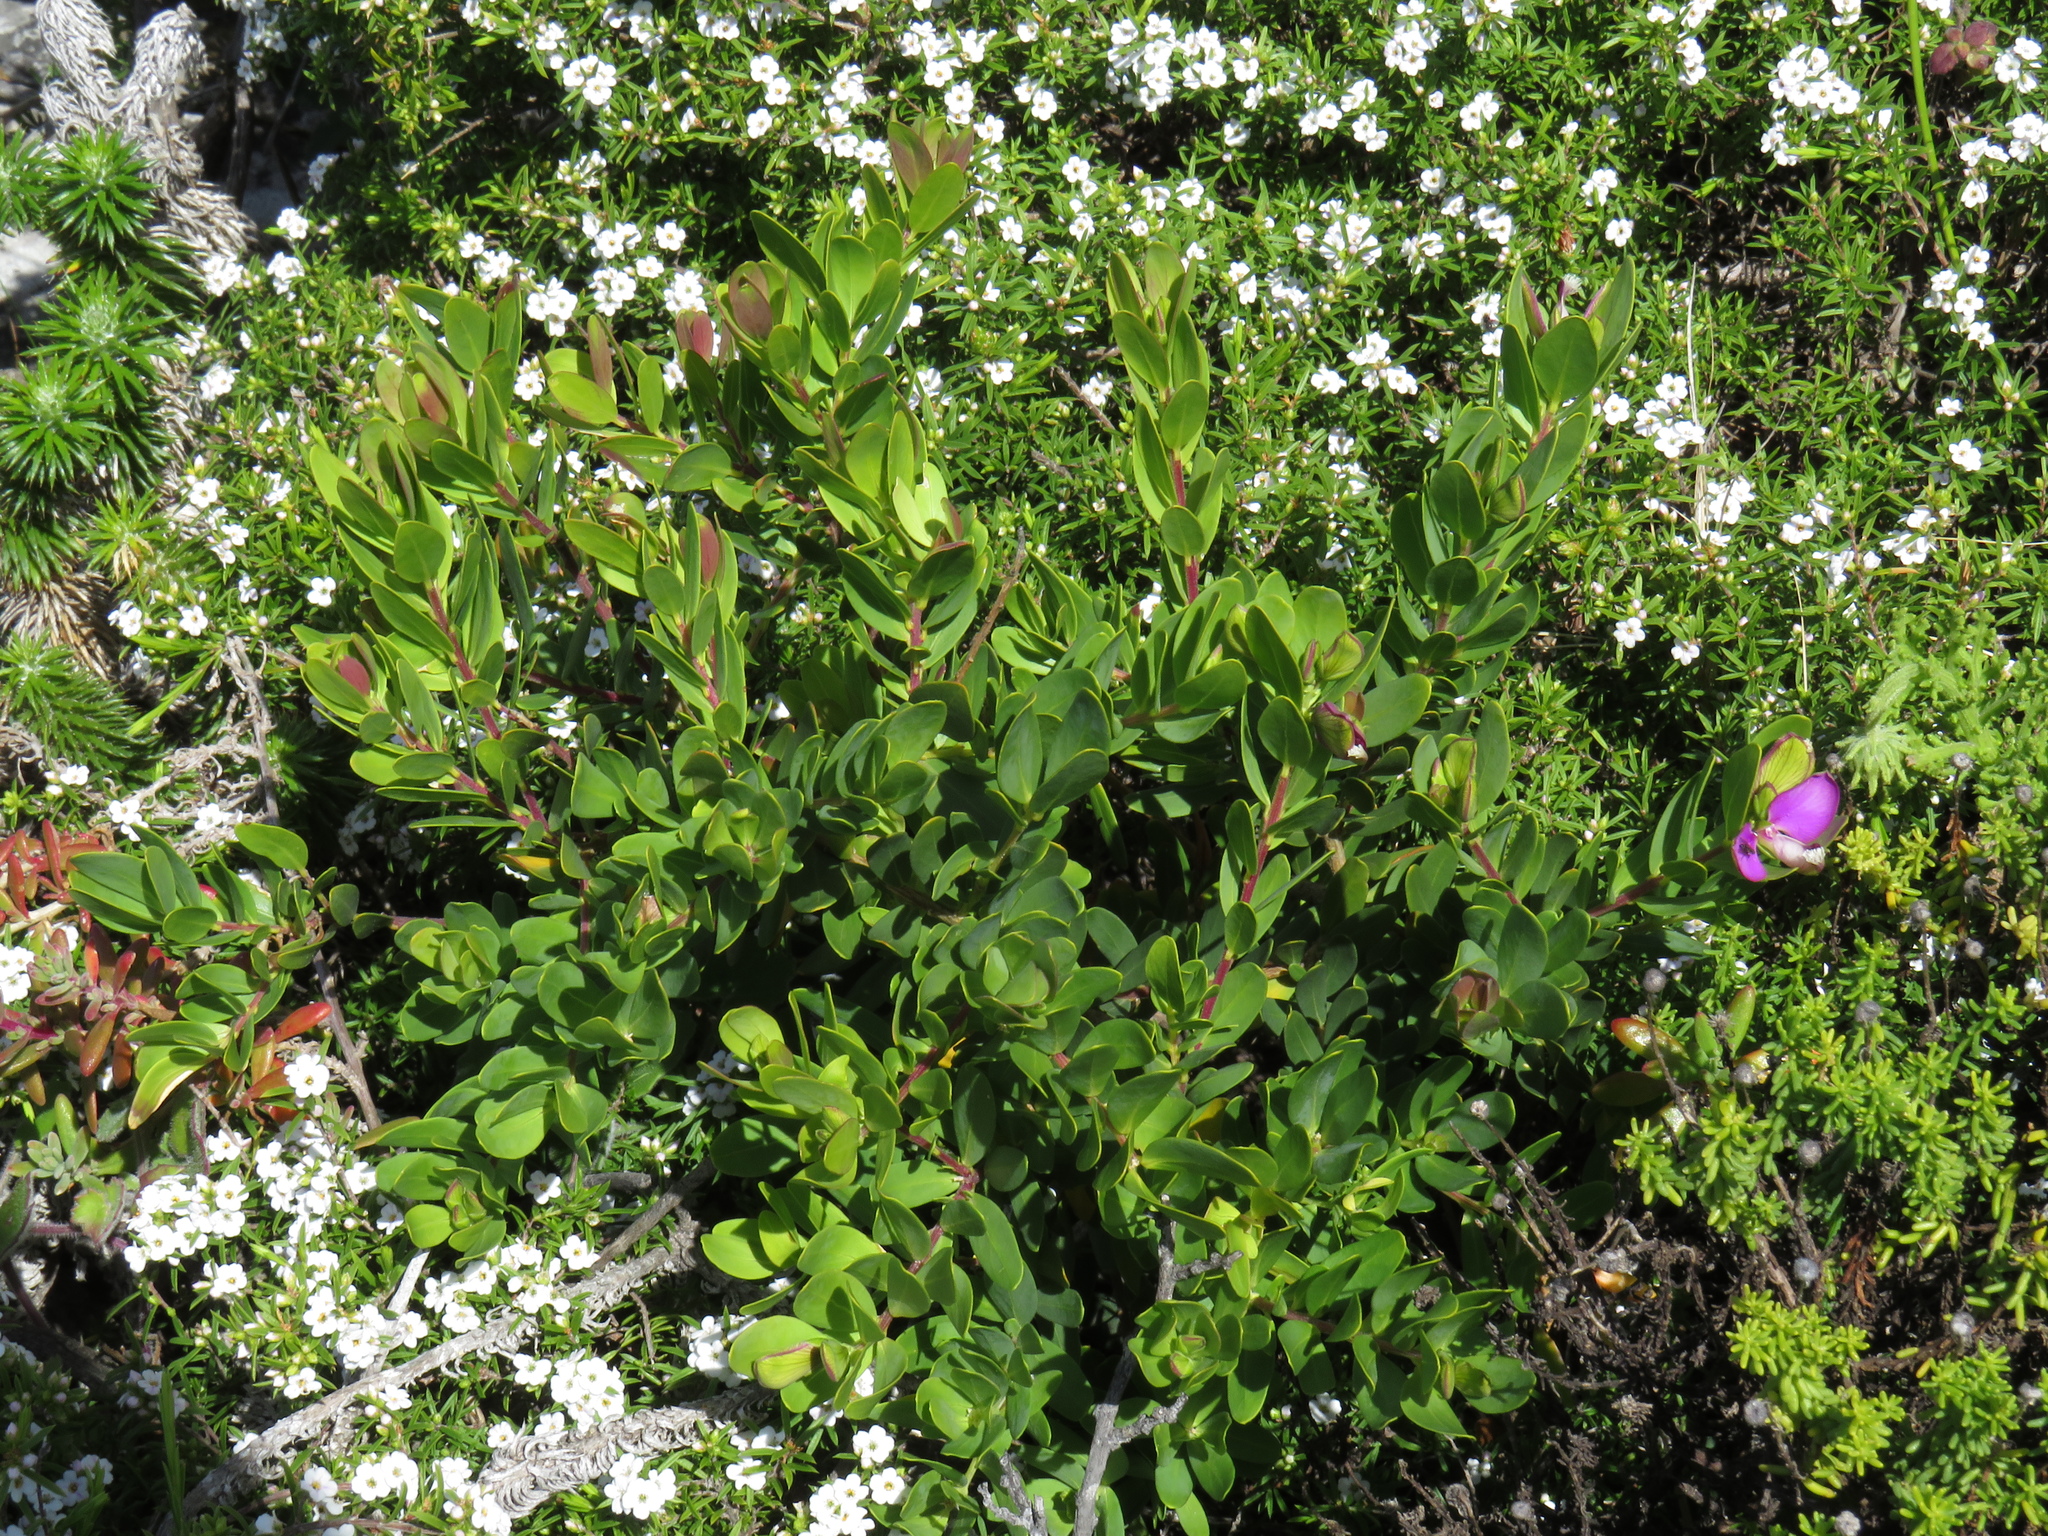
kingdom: Plantae
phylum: Tracheophyta
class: Magnoliopsida
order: Fabales
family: Polygalaceae
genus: Polygala
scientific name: Polygala myrtifolia
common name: Myrtle-leaf milkwort
